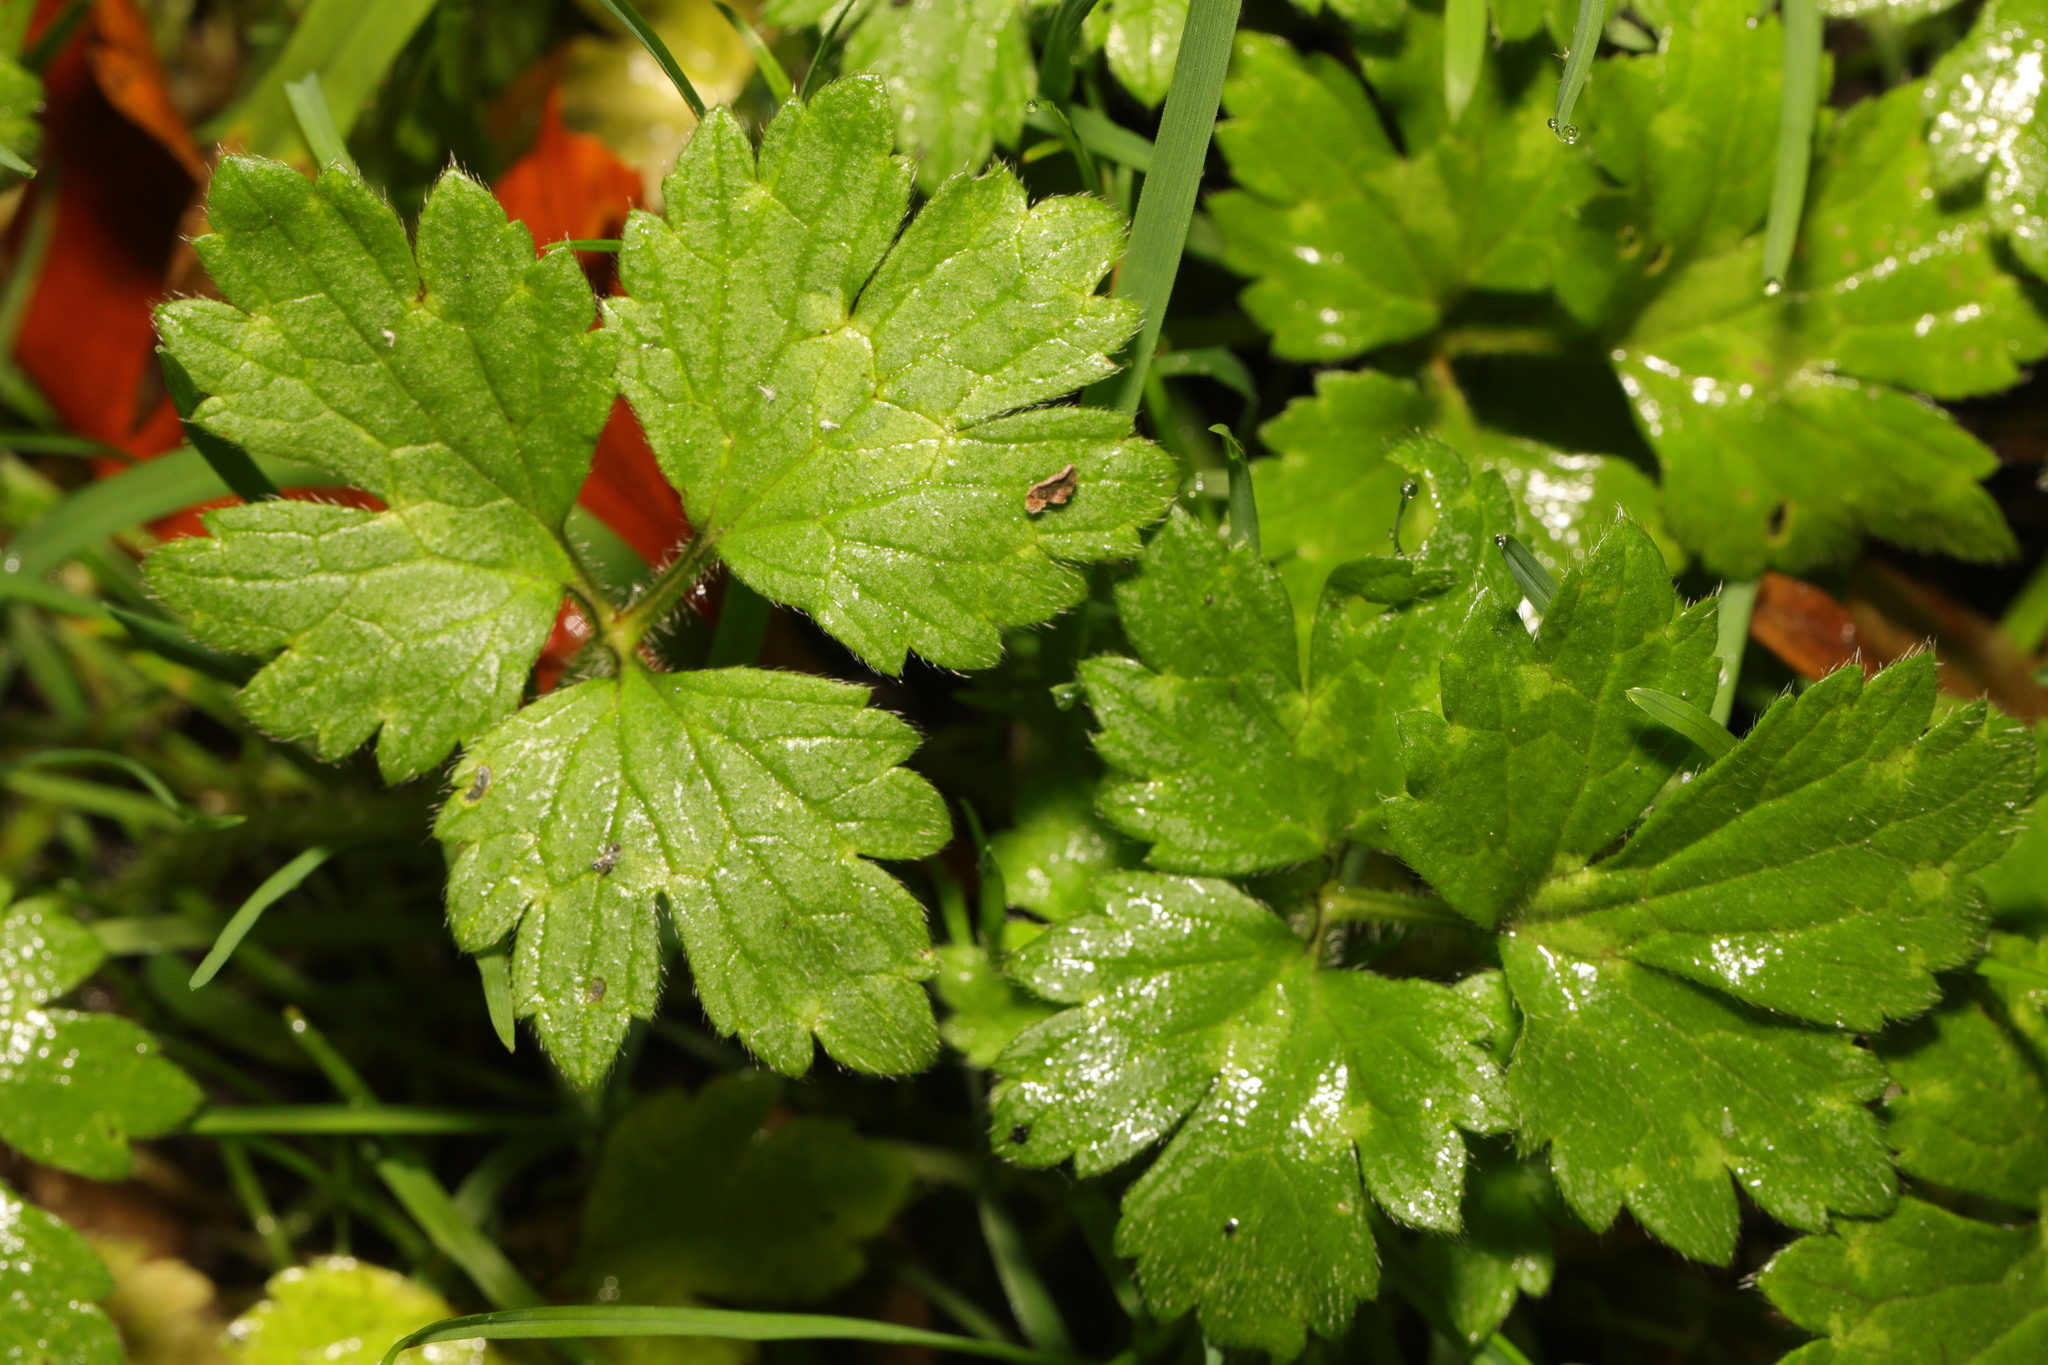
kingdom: Plantae
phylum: Tracheophyta
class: Magnoliopsida
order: Ranunculales
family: Ranunculaceae
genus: Ranunculus
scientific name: Ranunculus repens
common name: Creeping buttercup
